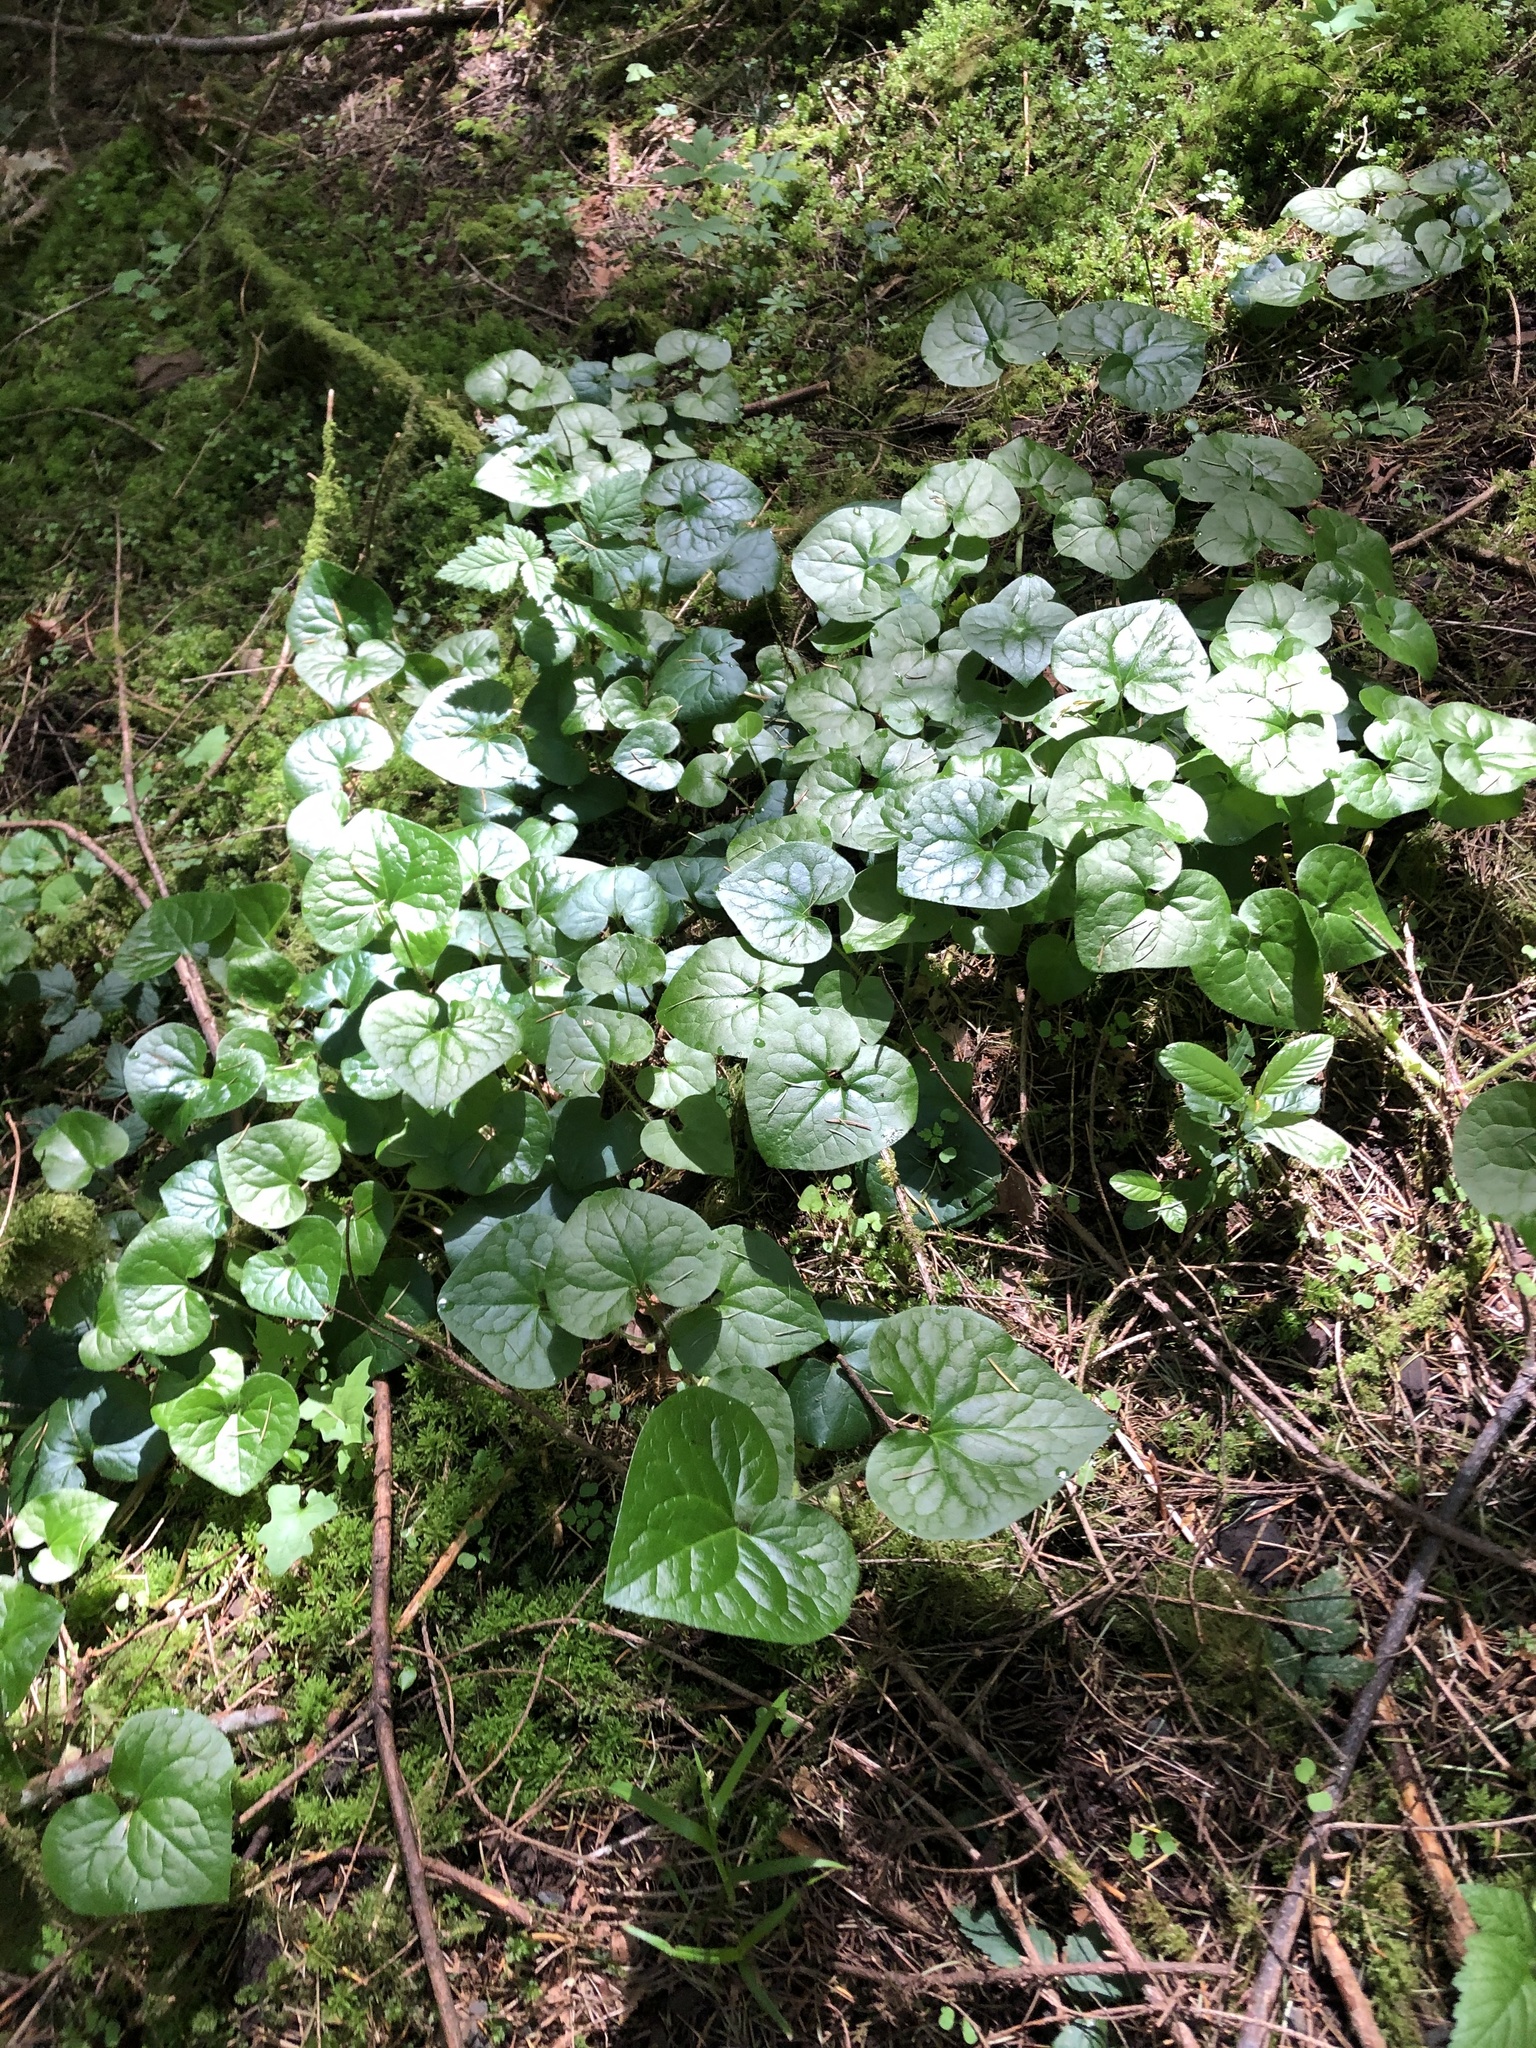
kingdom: Plantae
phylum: Tracheophyta
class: Magnoliopsida
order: Piperales
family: Aristolochiaceae
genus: Asarum
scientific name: Asarum caudatum
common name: Wild ginger
